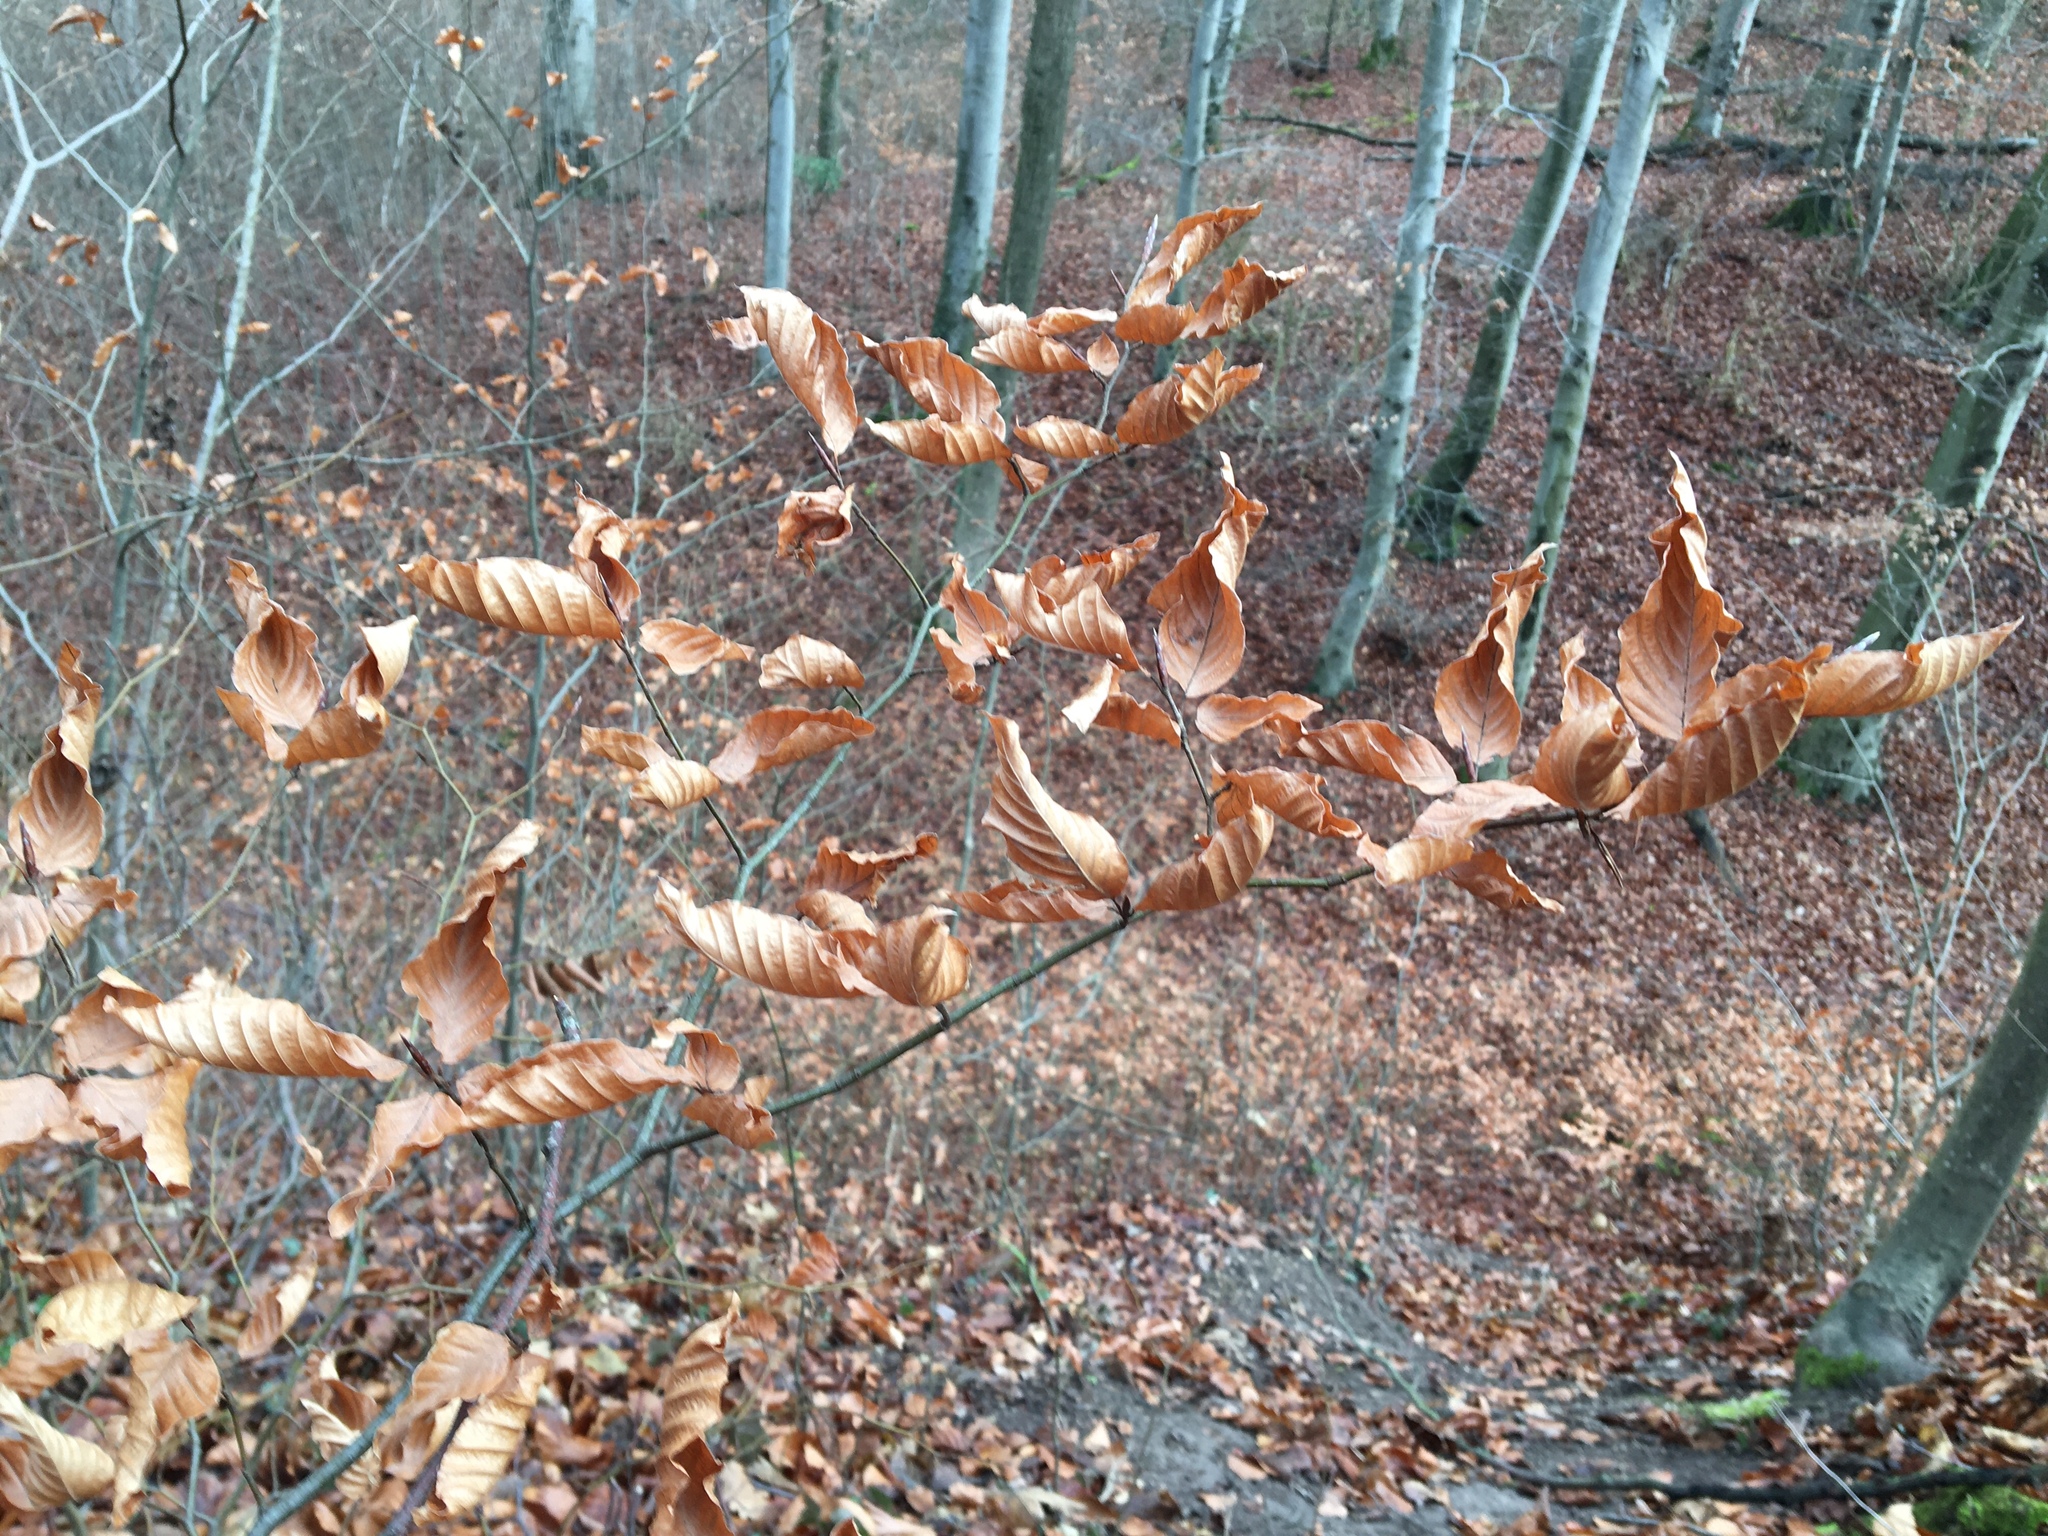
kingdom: Plantae
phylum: Tracheophyta
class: Magnoliopsida
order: Fagales
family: Fagaceae
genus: Fagus
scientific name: Fagus sylvatica
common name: Beech
